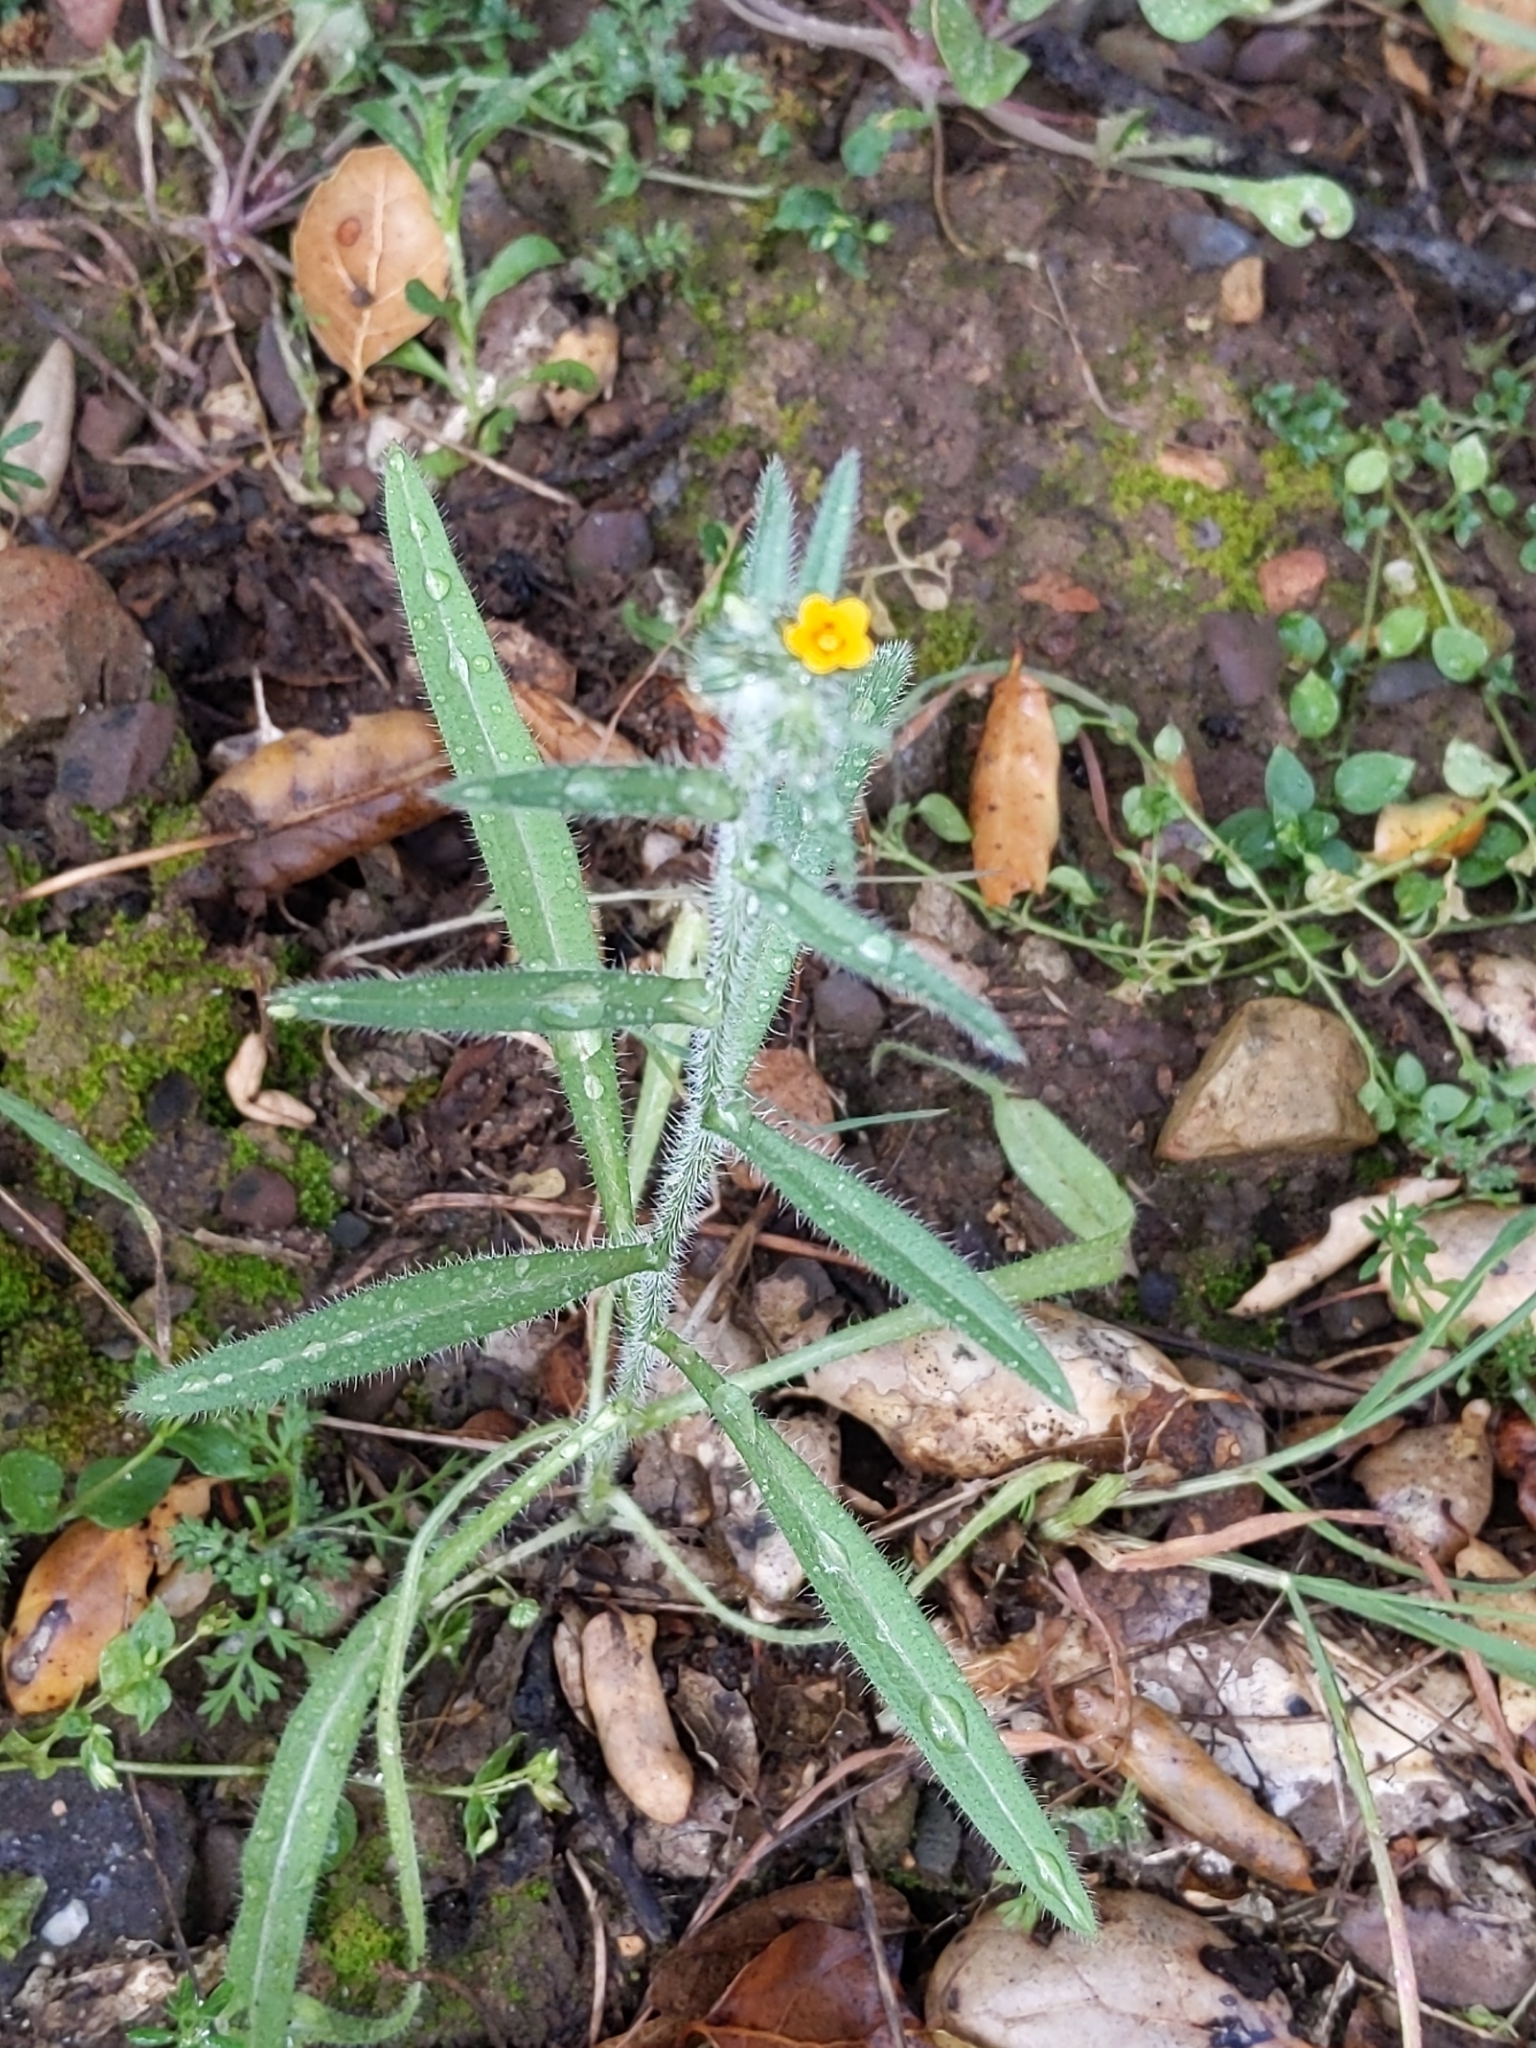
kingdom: Plantae
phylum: Tracheophyta
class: Magnoliopsida
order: Boraginales
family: Boraginaceae
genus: Amsinckia
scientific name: Amsinckia menziesii
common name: Menzies' fiddleneck
